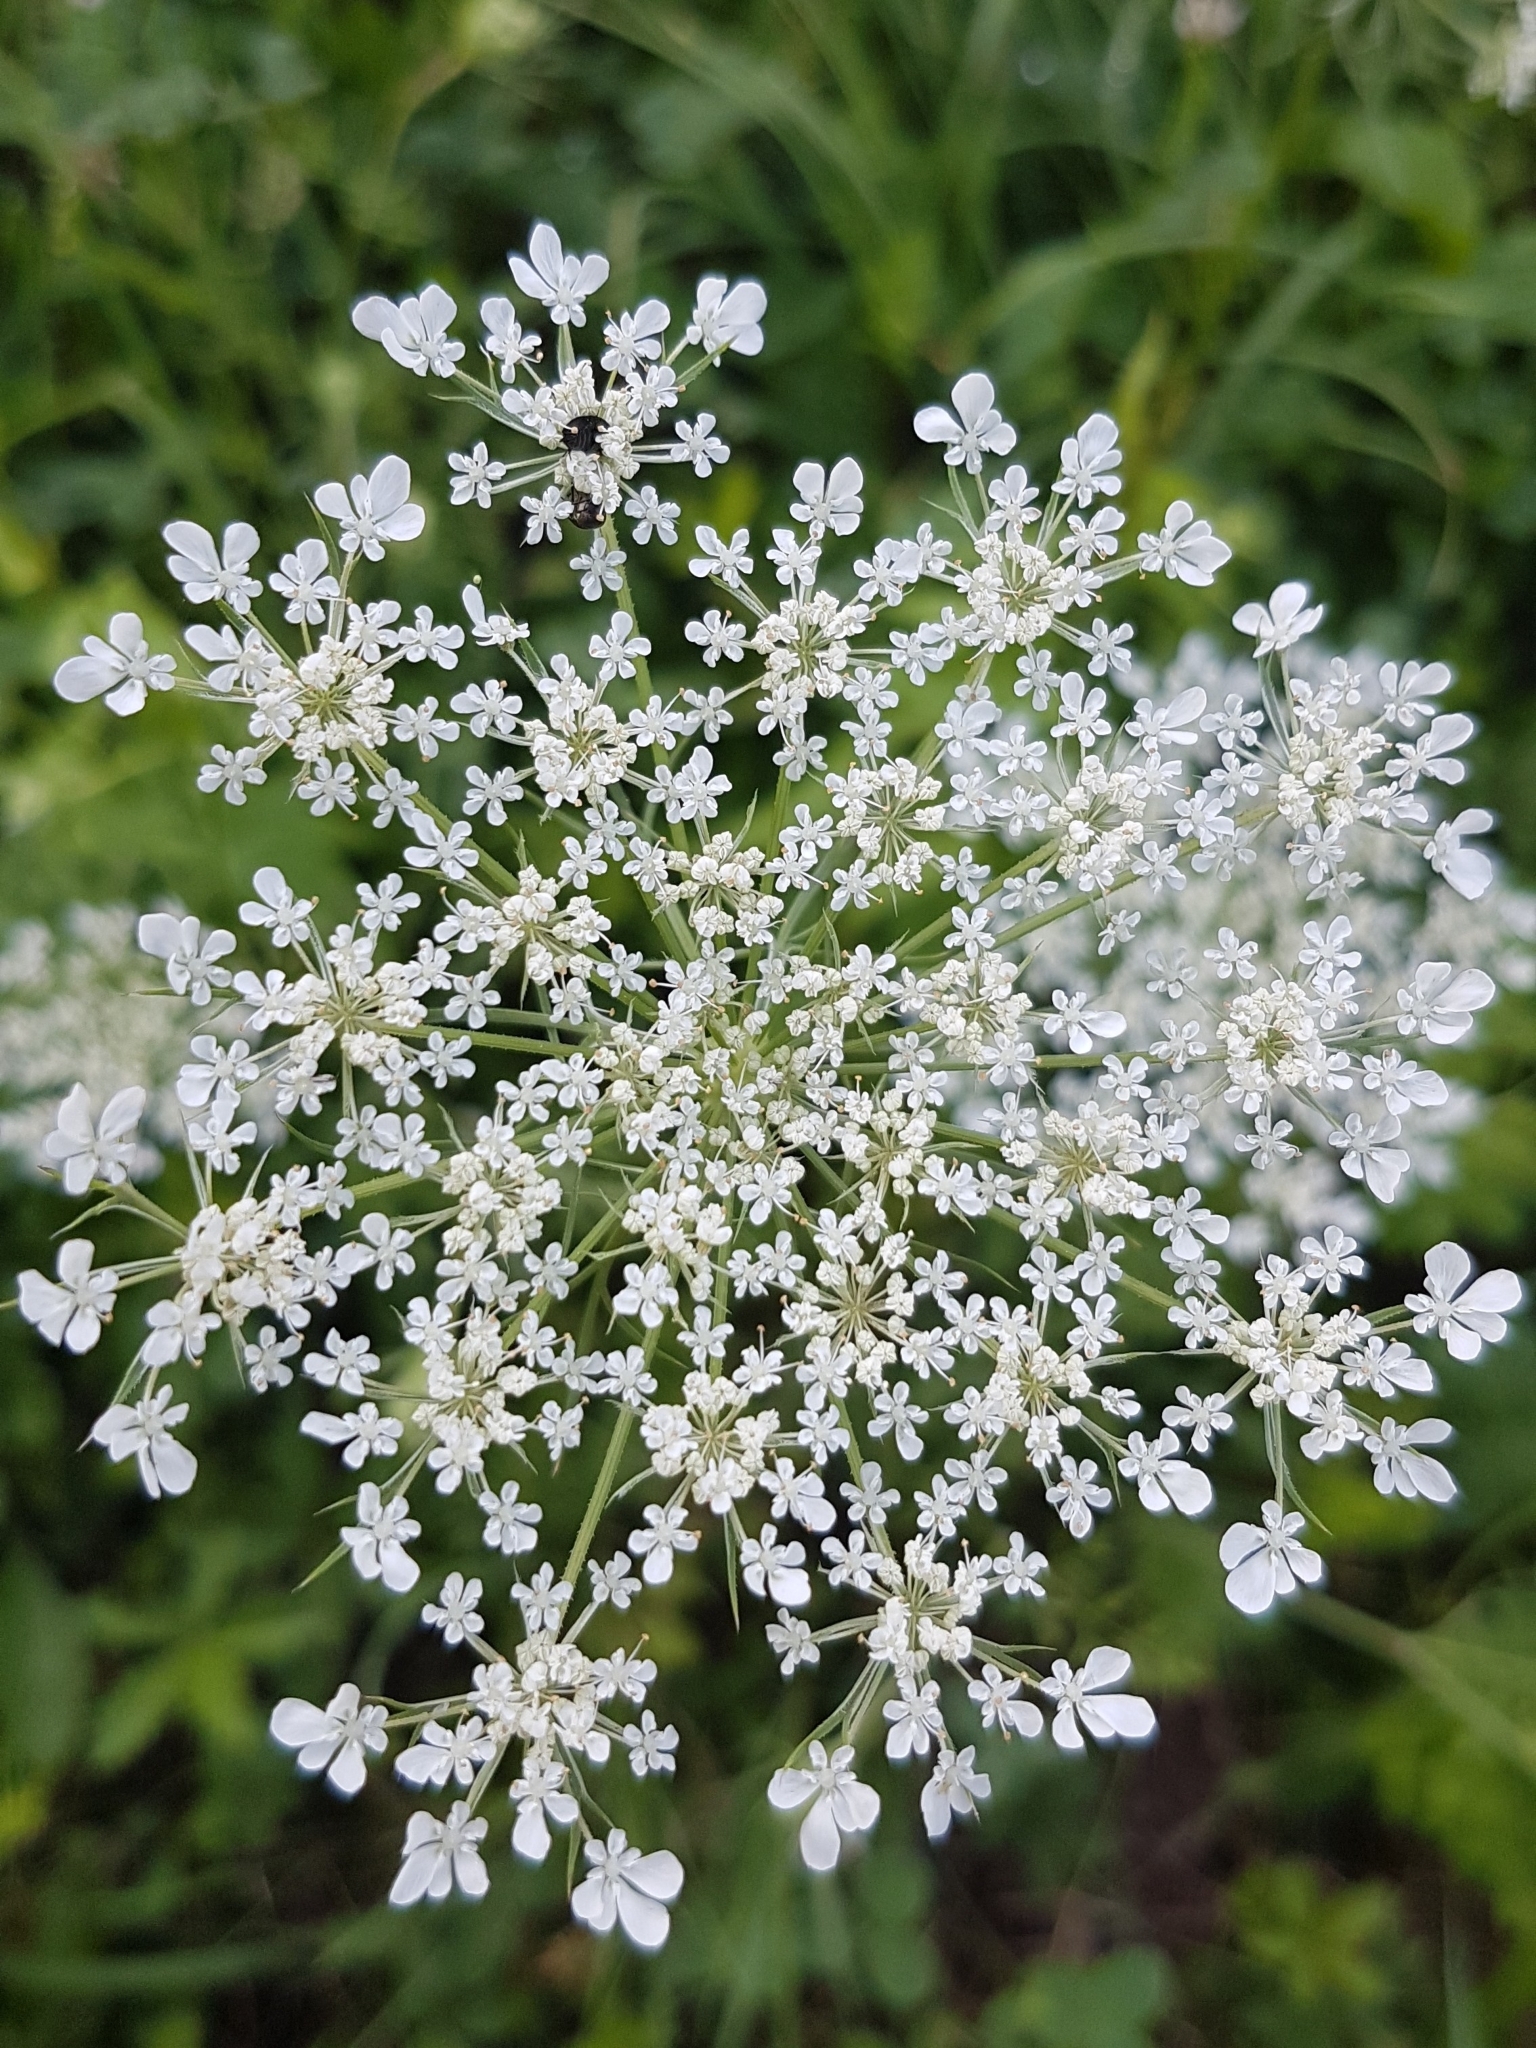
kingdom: Plantae
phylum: Tracheophyta
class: Magnoliopsida
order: Apiales
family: Apiaceae
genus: Daucus
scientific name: Daucus carota
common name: Wild carrot
